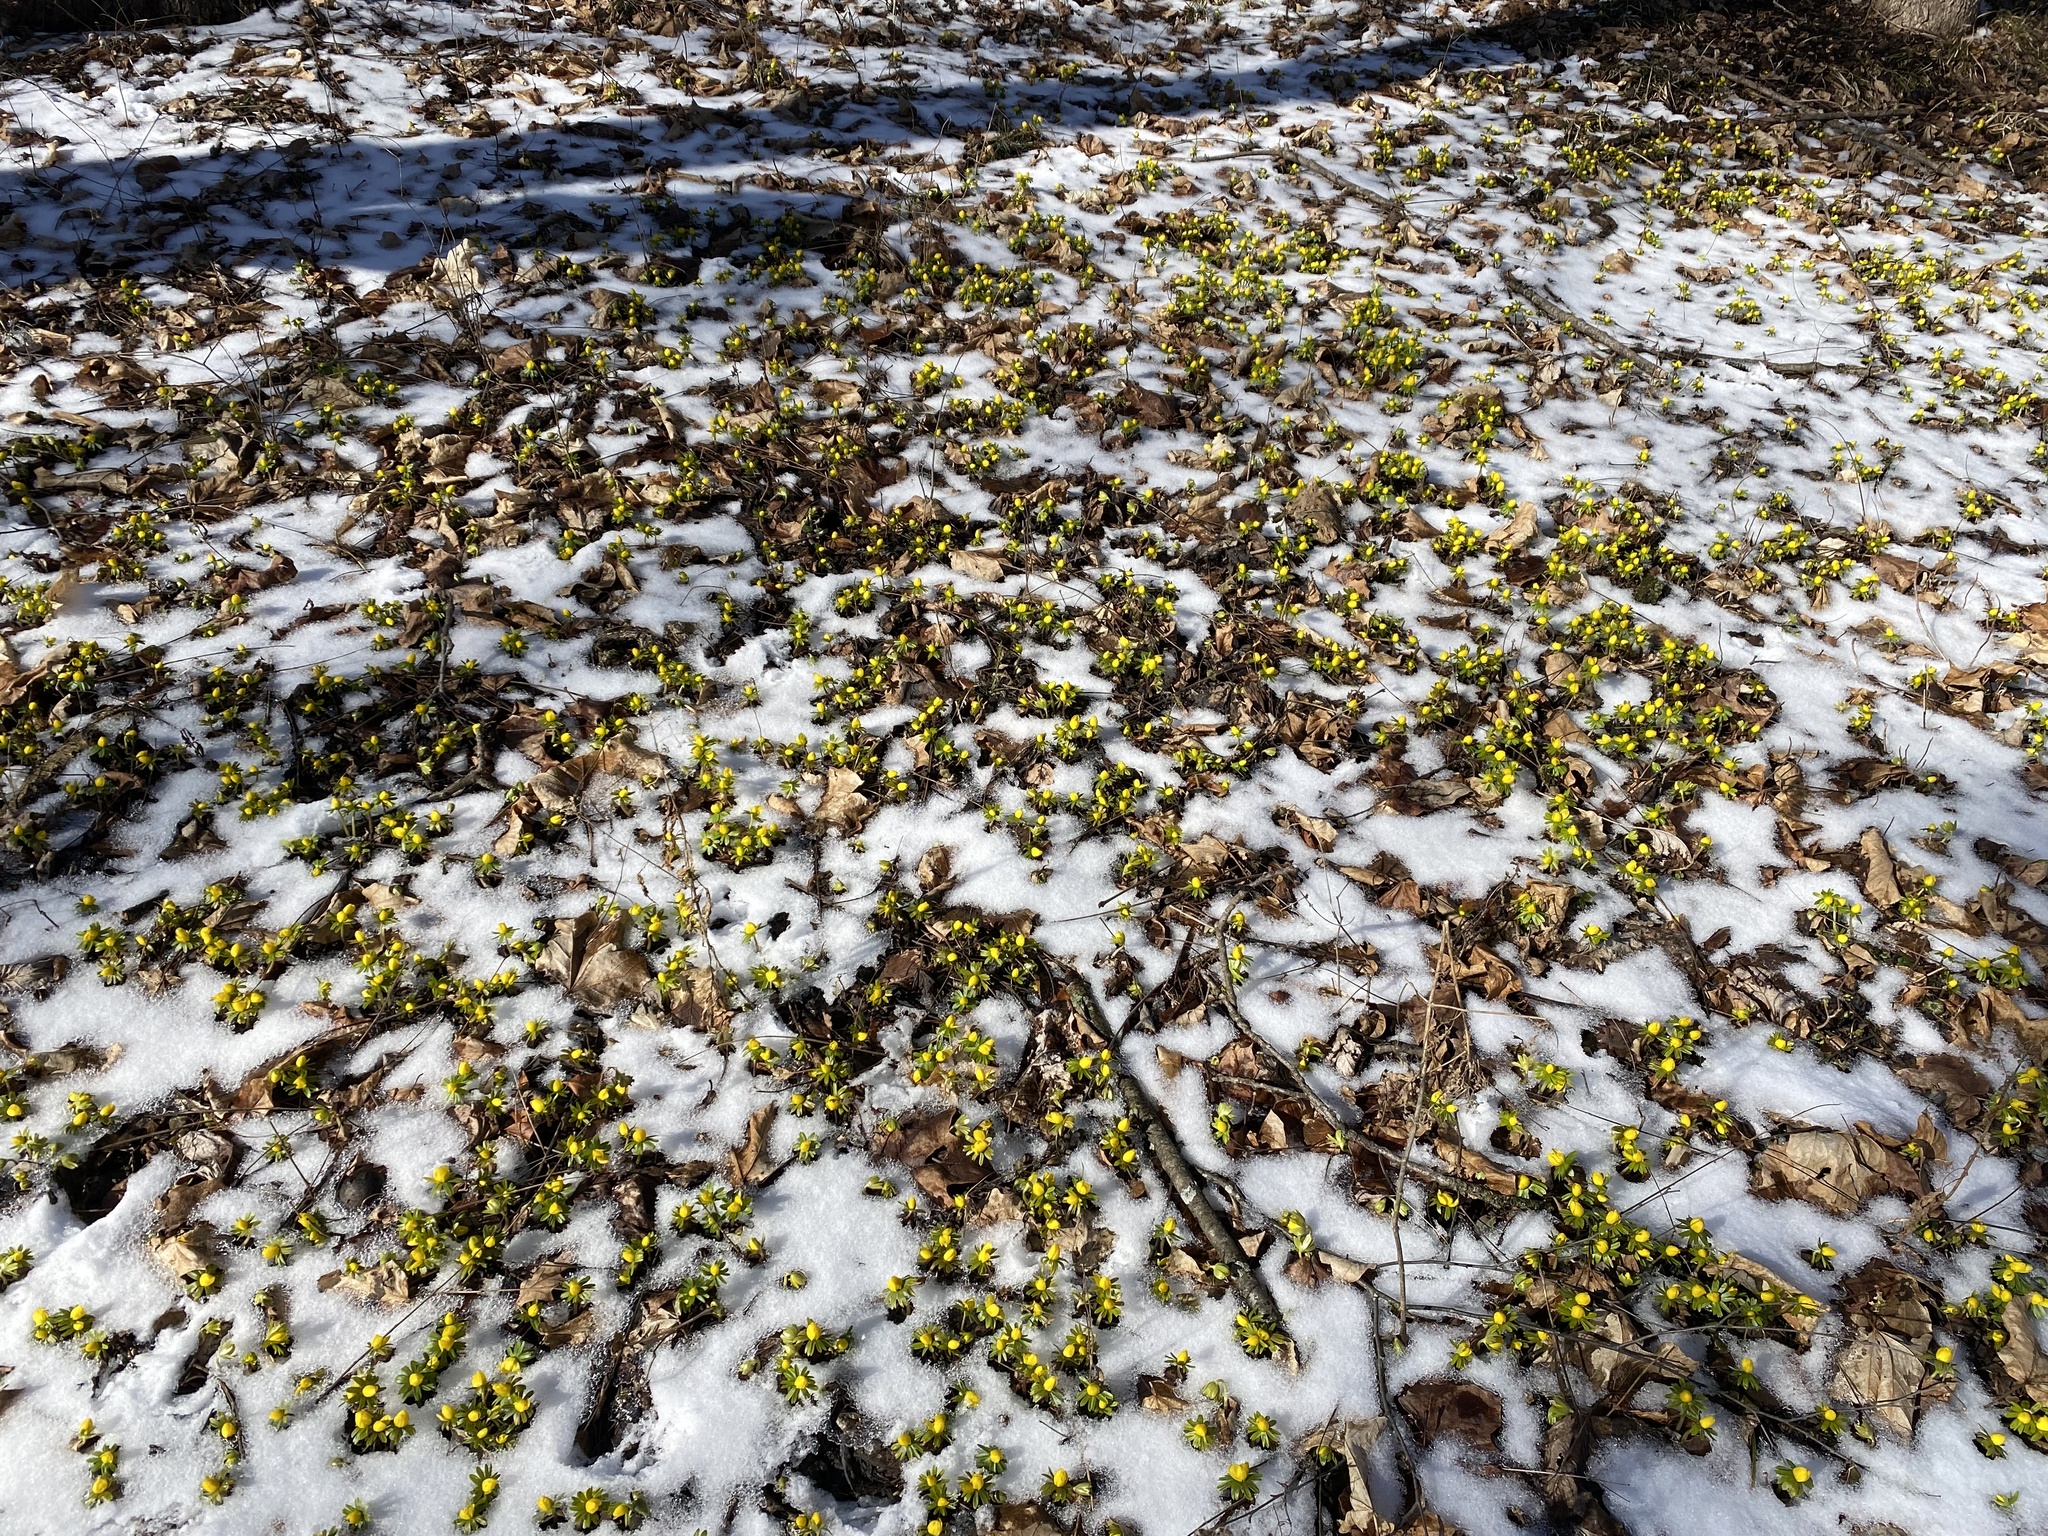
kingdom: Plantae
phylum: Tracheophyta
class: Magnoliopsida
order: Ranunculales
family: Ranunculaceae
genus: Eranthis
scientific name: Eranthis hyemalis
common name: Winter aconite
